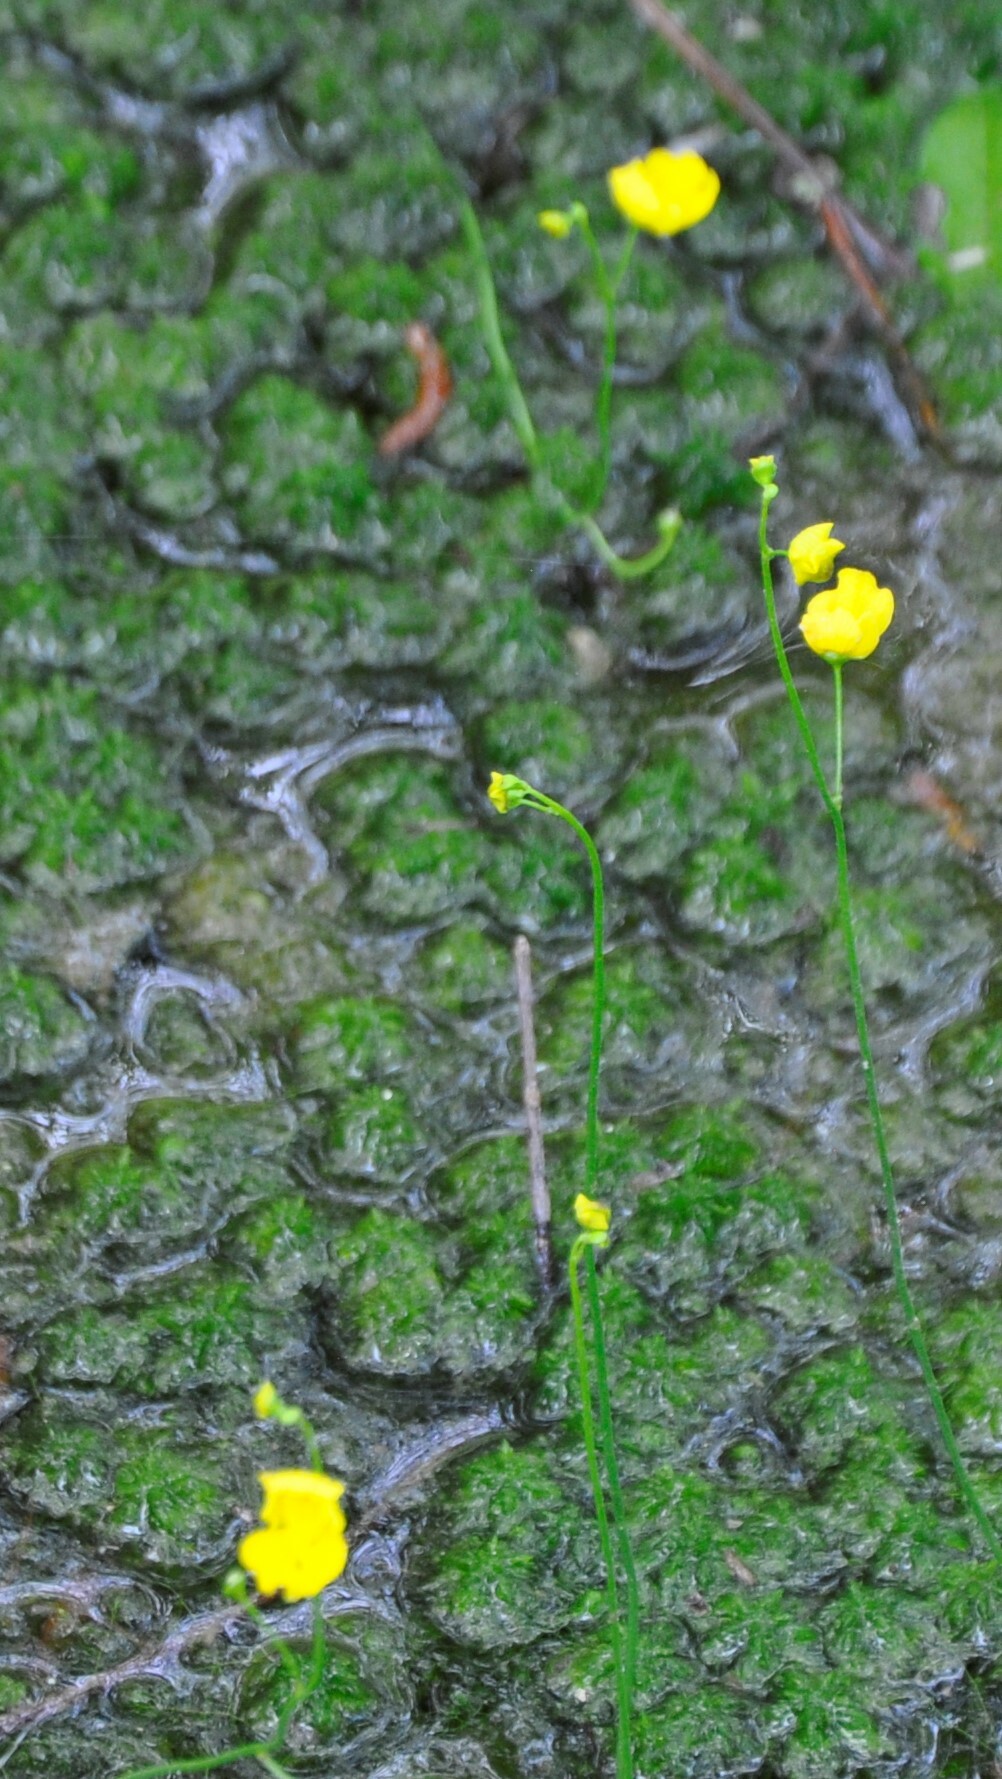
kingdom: Plantae
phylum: Tracheophyta
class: Magnoliopsida
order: Lamiales
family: Lentibulariaceae
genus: Utricularia
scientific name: Utricularia gibba
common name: Humped bladderwort
